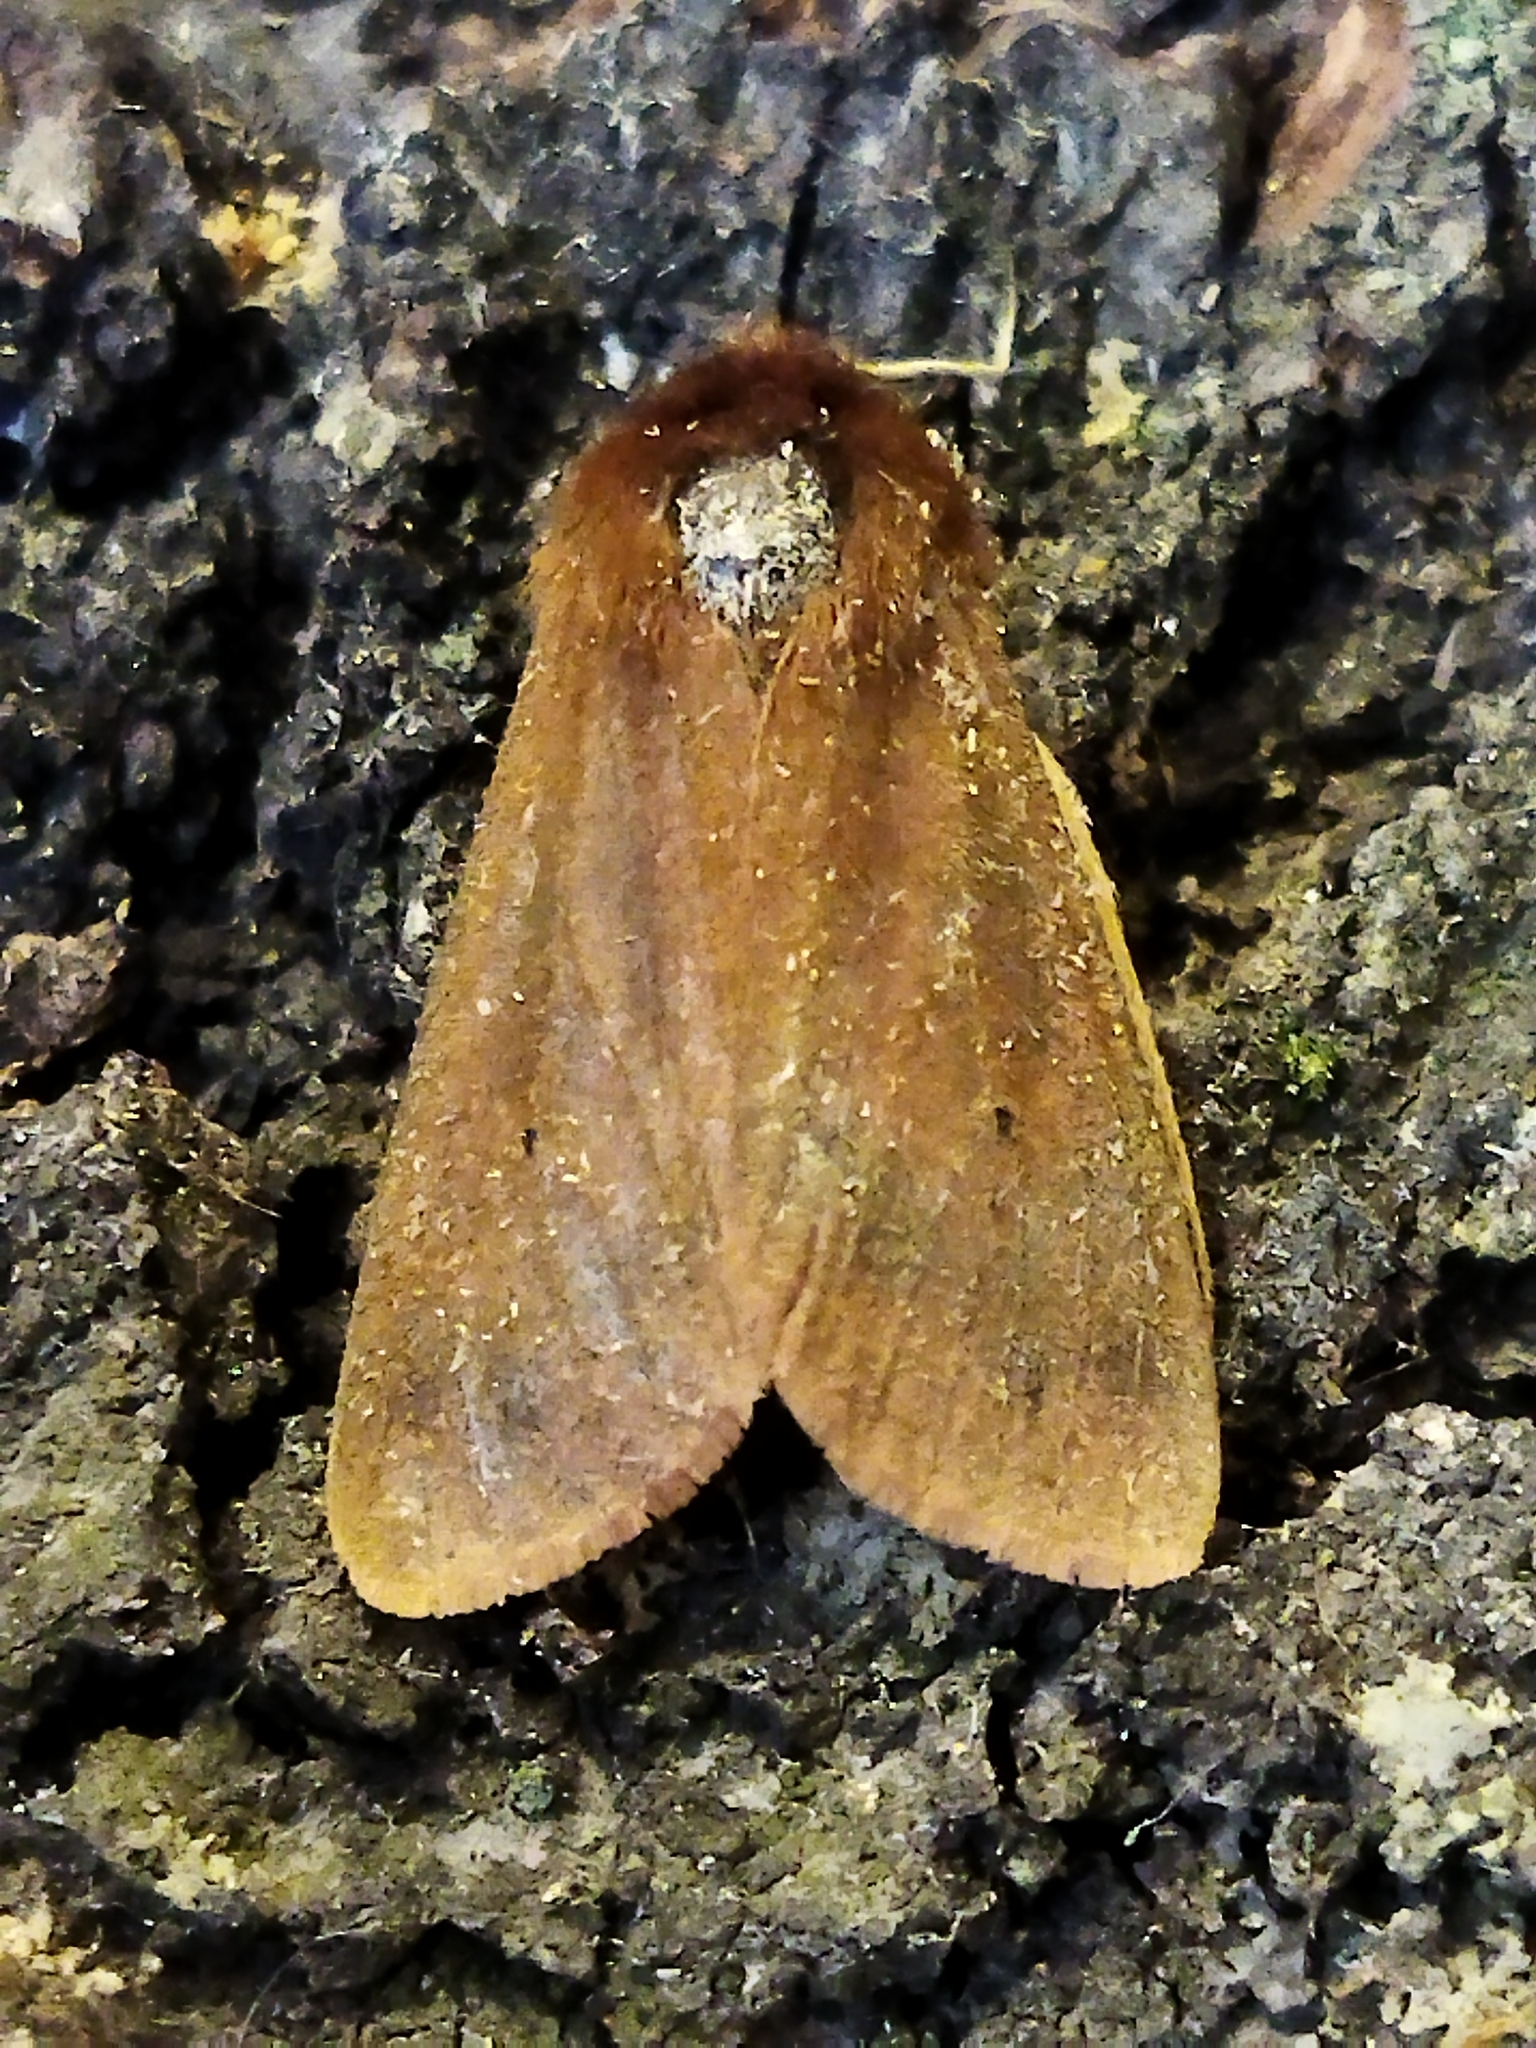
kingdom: Animalia
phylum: Arthropoda
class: Insecta
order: Lepidoptera
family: Erebidae
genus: Phragmatobia
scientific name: Phragmatobia fuliginosa
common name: Ruby tiger
